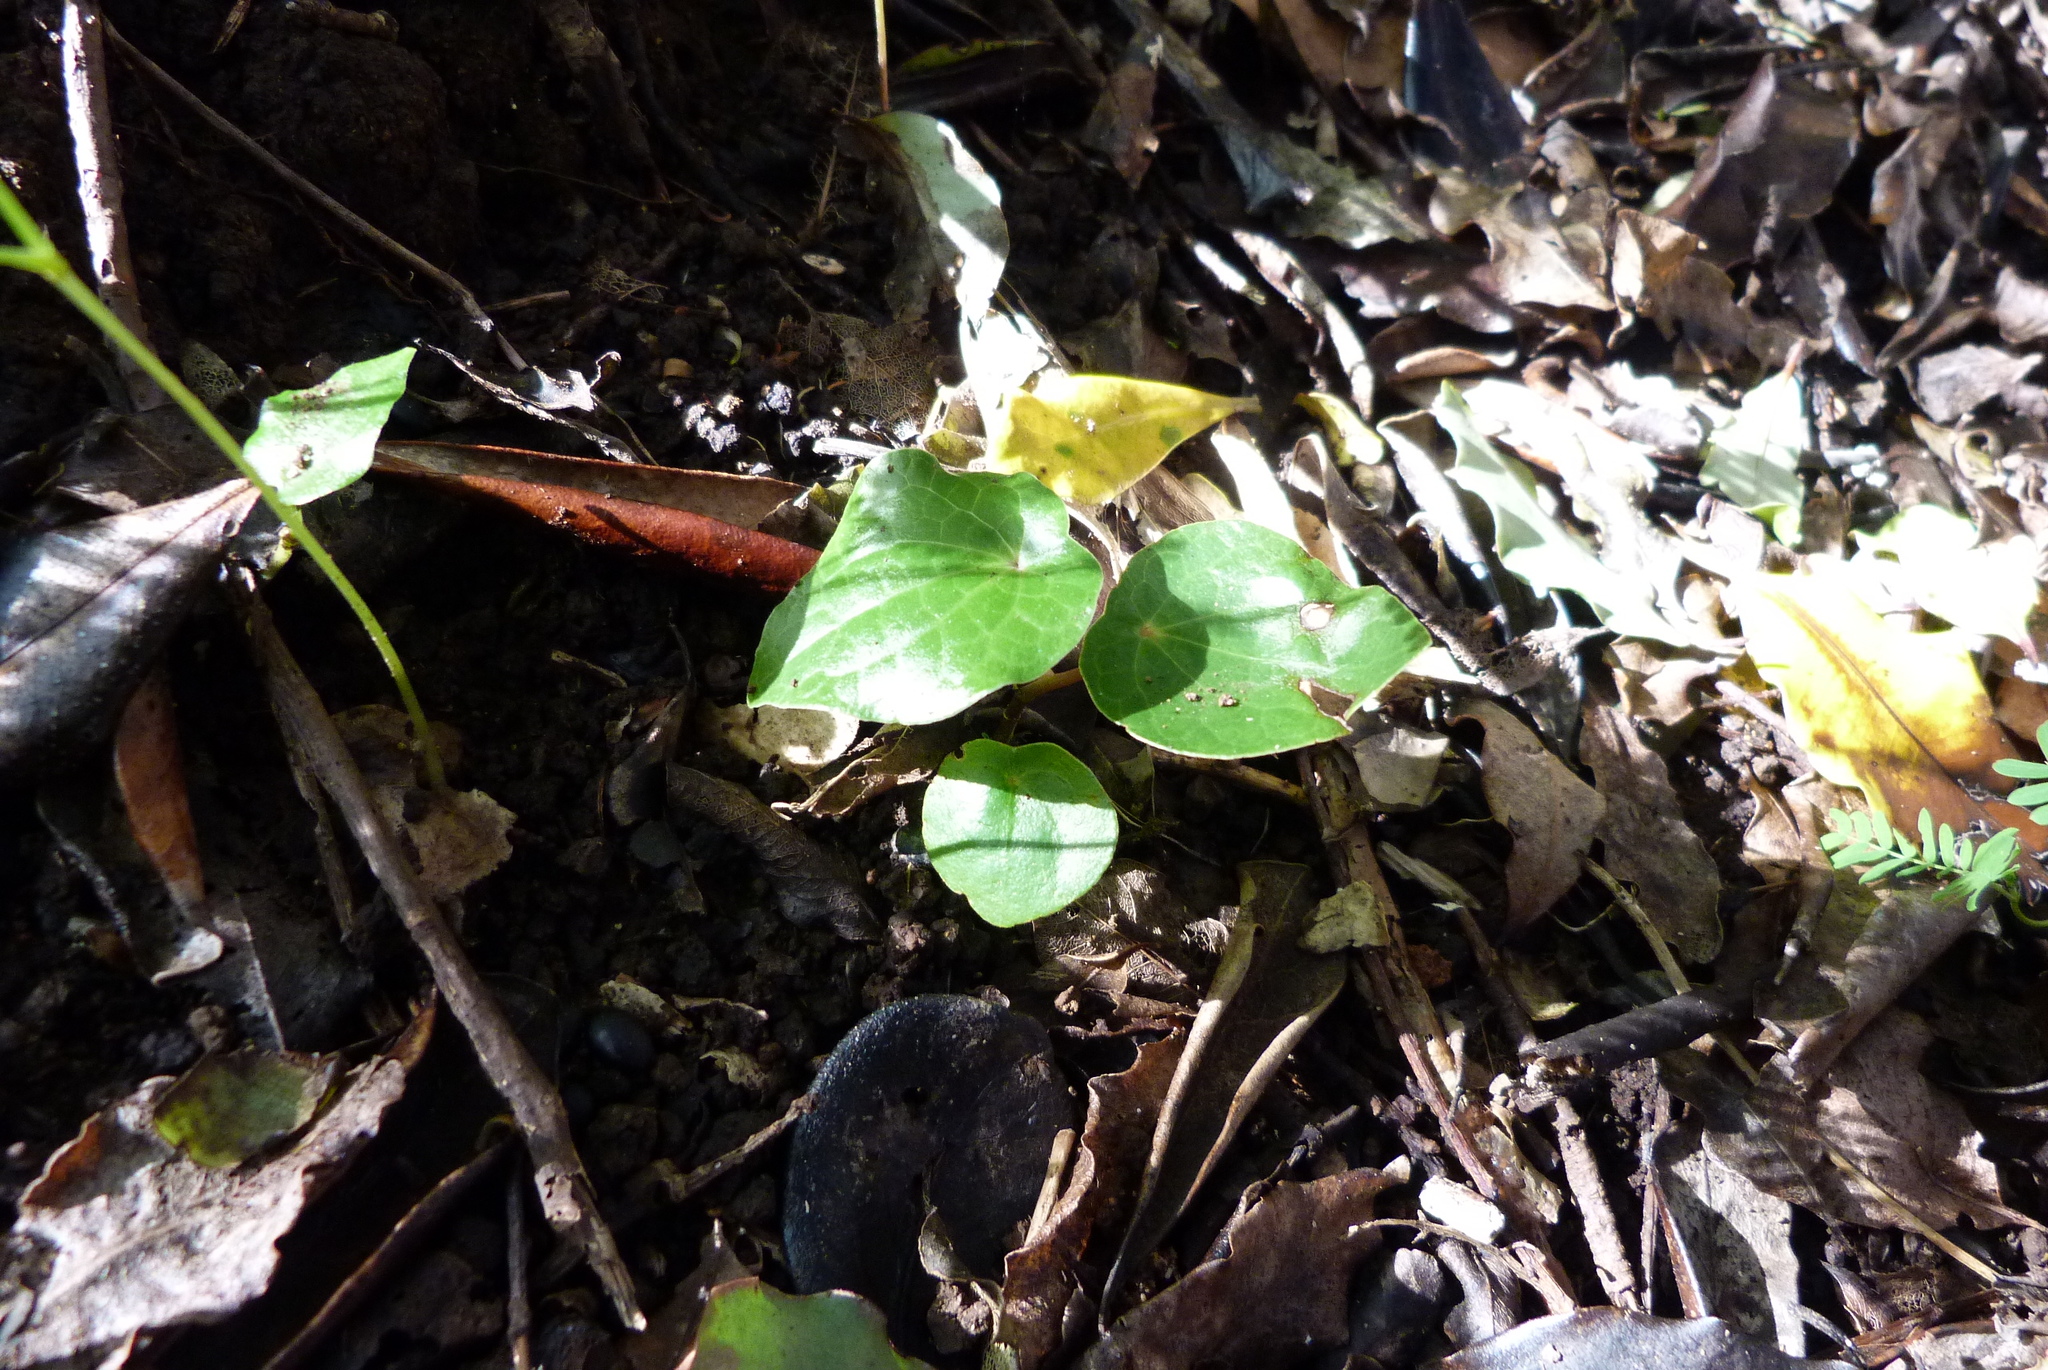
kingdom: Plantae
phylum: Tracheophyta
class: Magnoliopsida
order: Piperales
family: Piperaceae
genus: Macropiper
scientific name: Macropiper excelsum
